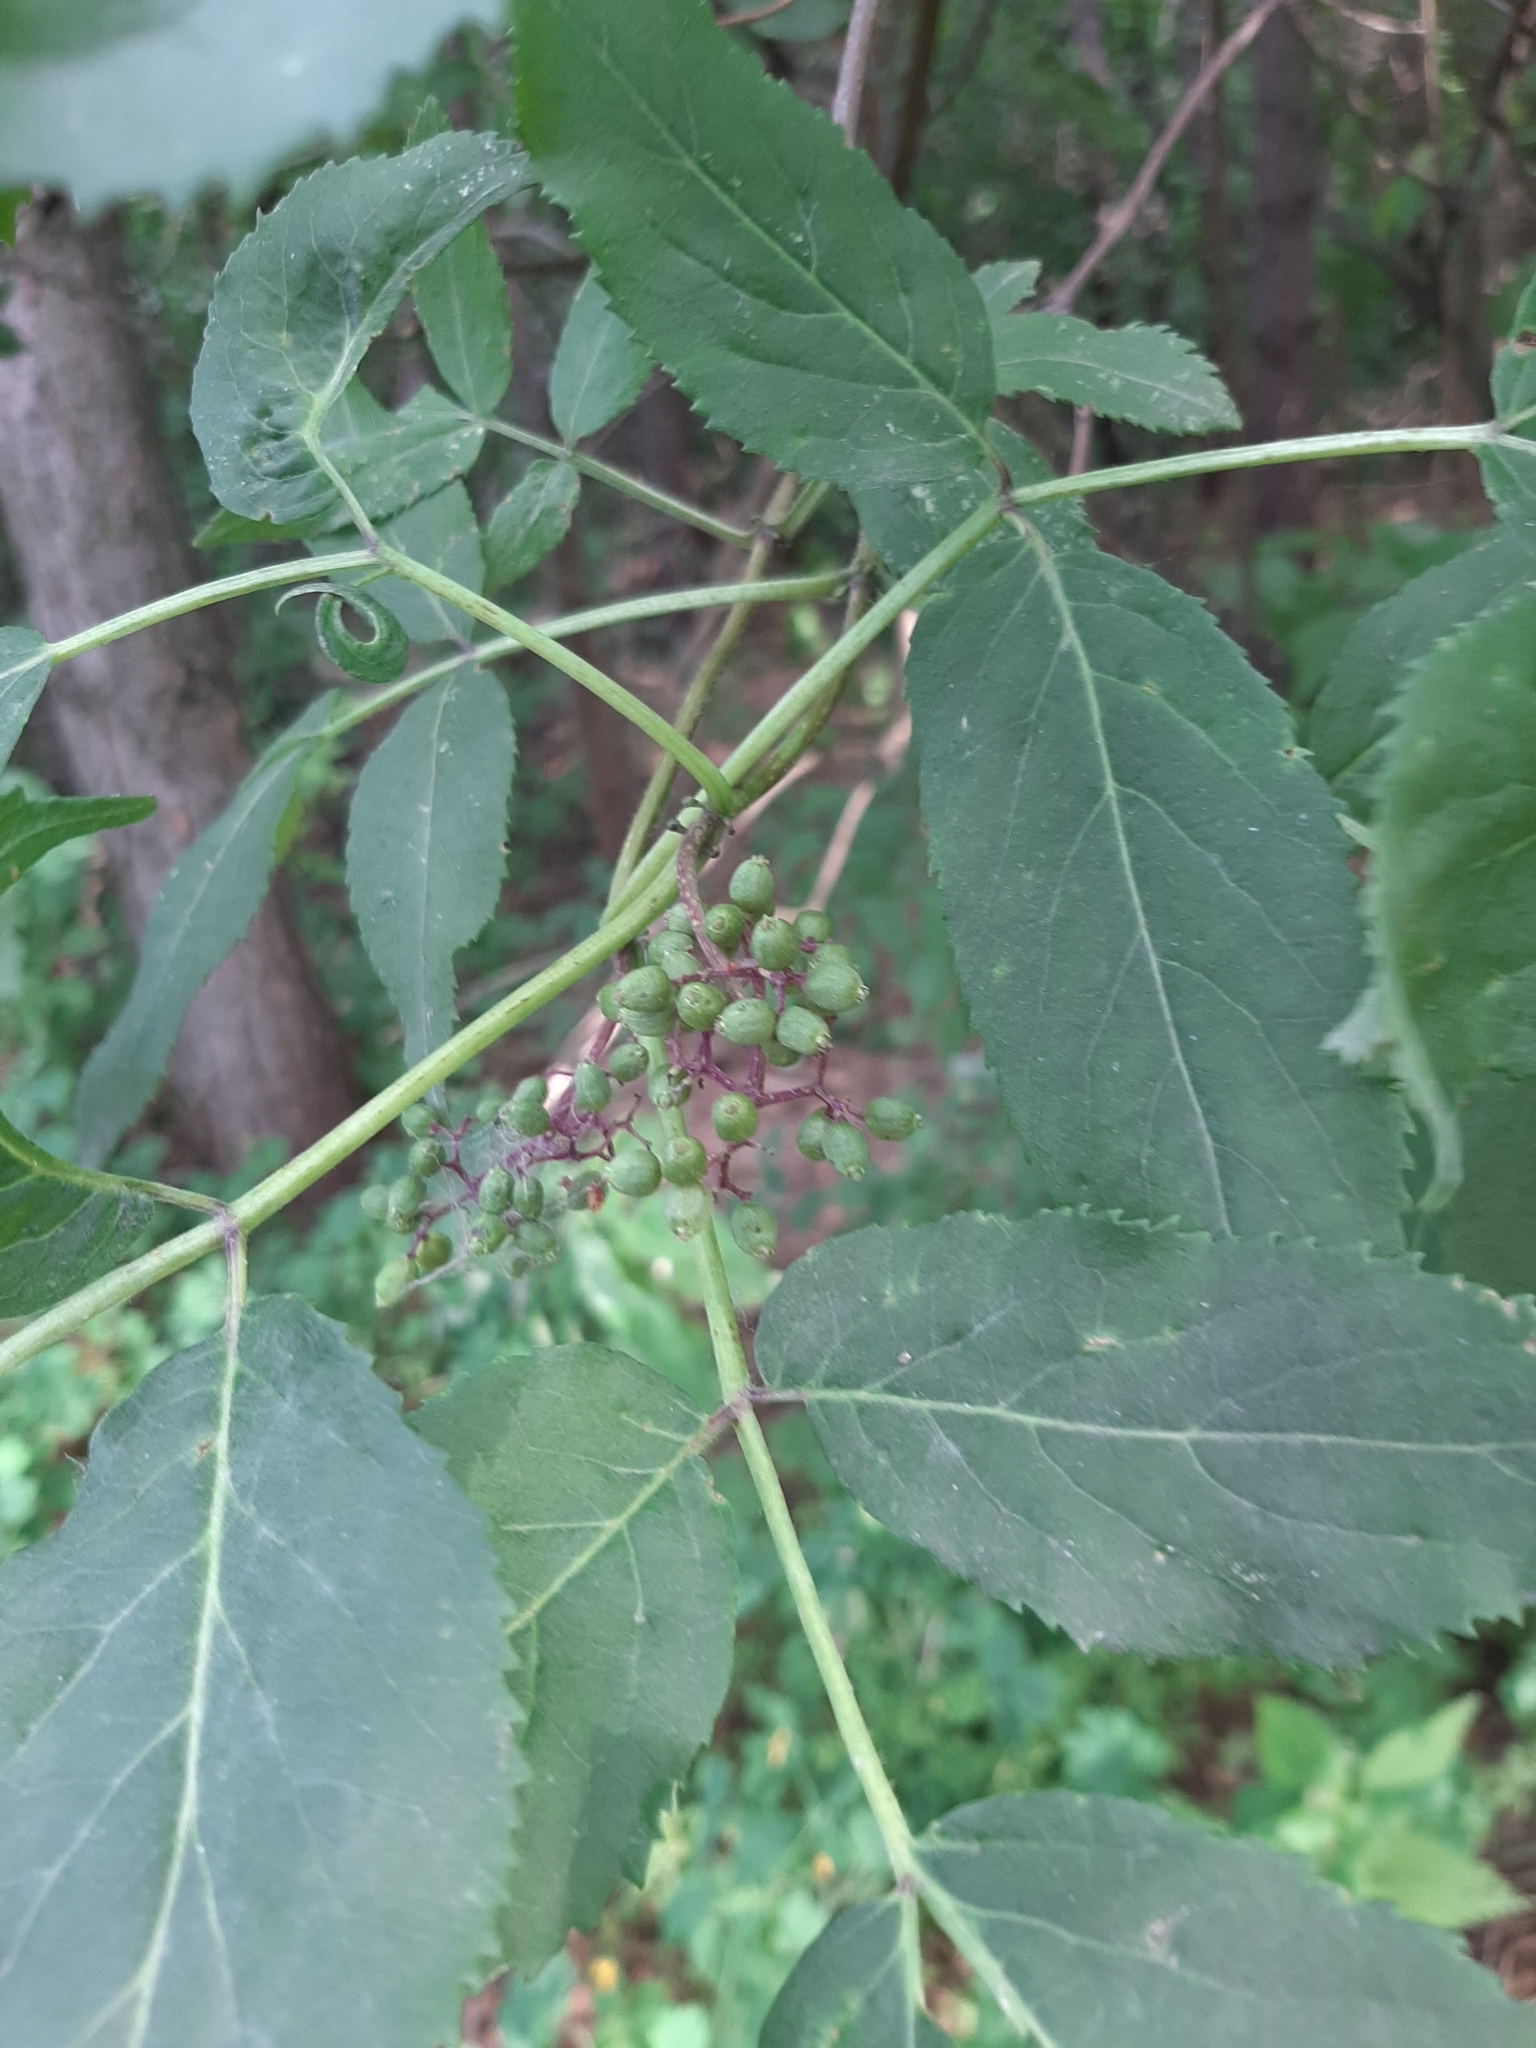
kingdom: Plantae
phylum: Tracheophyta
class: Magnoliopsida
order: Dipsacales
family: Viburnaceae
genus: Sambucus
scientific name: Sambucus racemosa
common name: Red-berried elder
